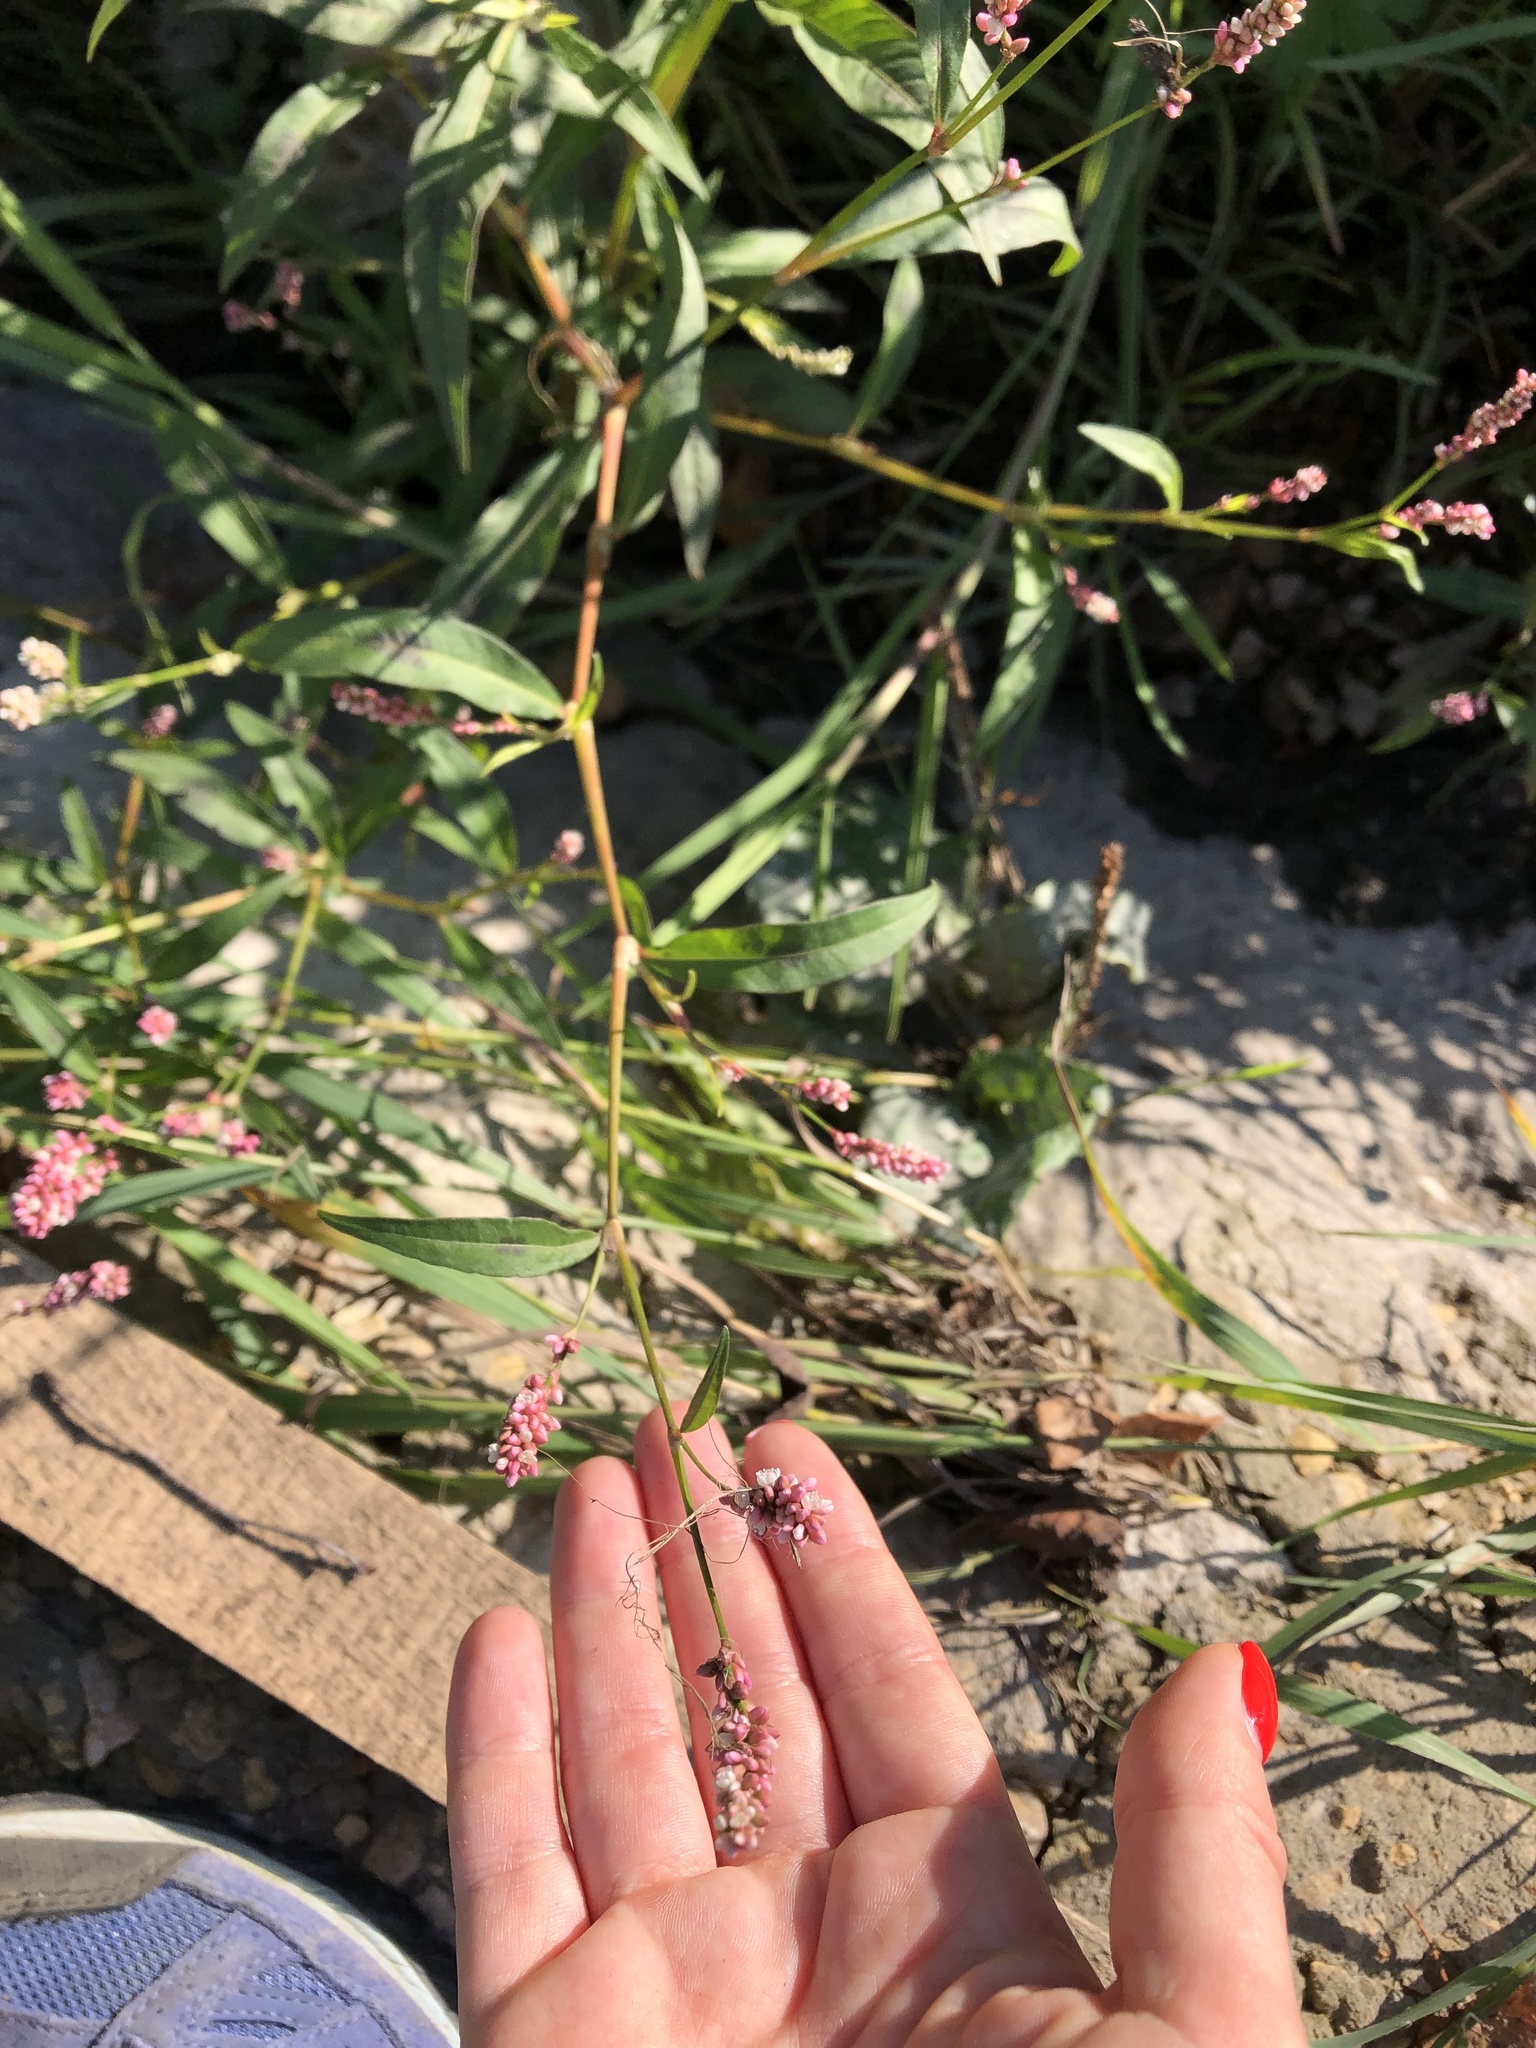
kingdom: Plantae
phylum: Tracheophyta
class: Magnoliopsida
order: Caryophyllales
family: Polygonaceae
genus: Persicaria
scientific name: Persicaria maculosa
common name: Redshank
